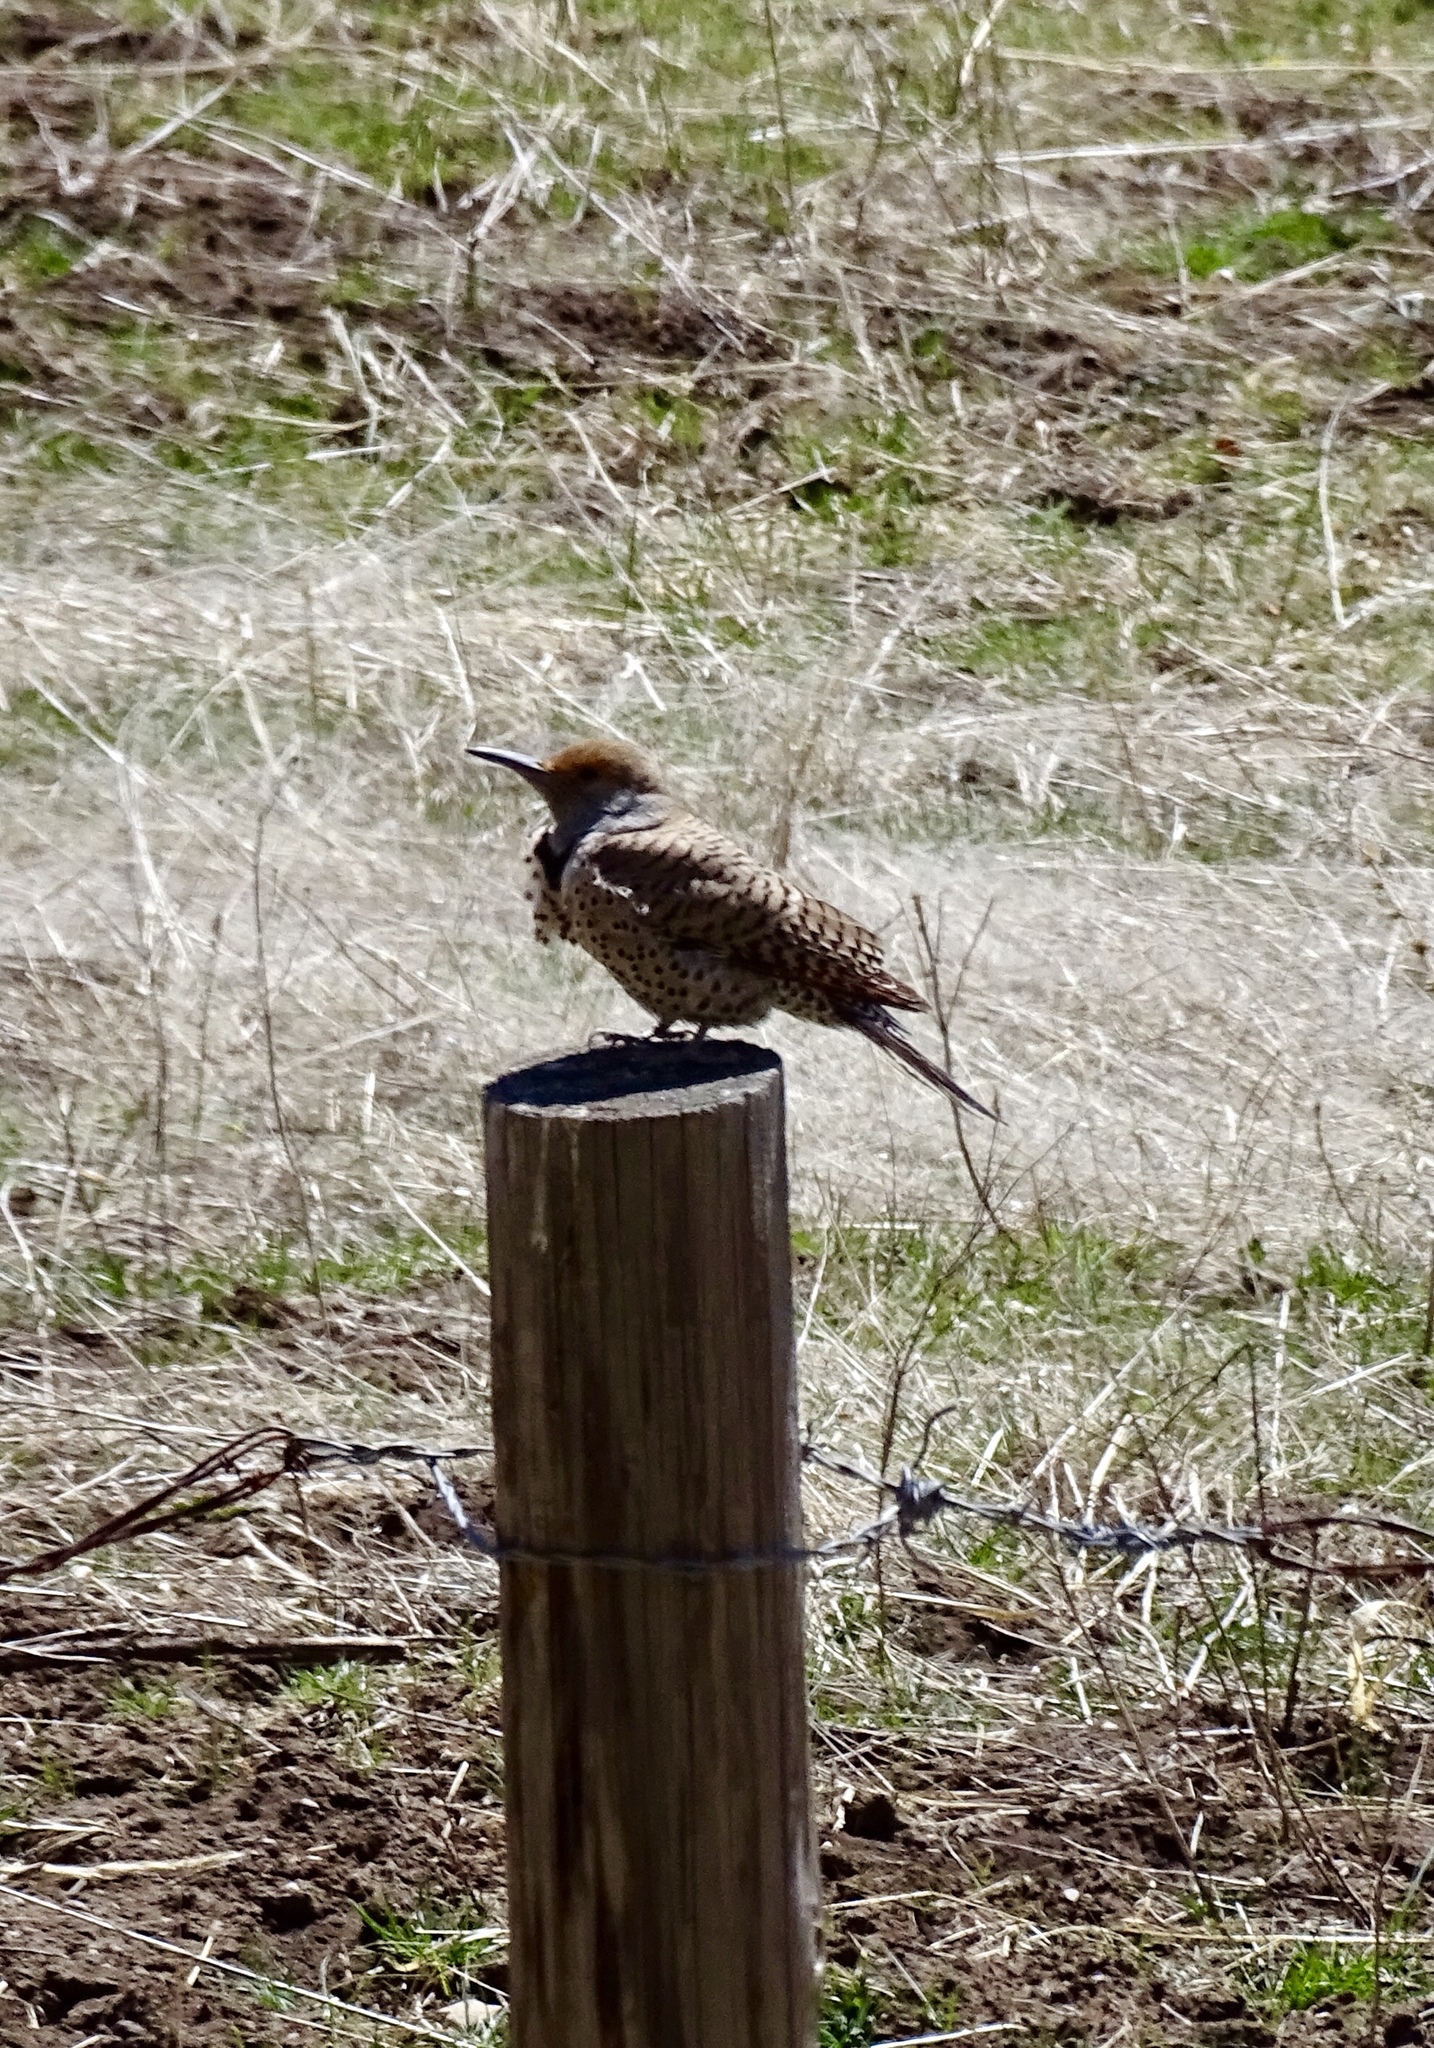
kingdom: Animalia
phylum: Chordata
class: Aves
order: Piciformes
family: Picidae
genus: Colaptes
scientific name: Colaptes auratus
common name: Northern flicker
